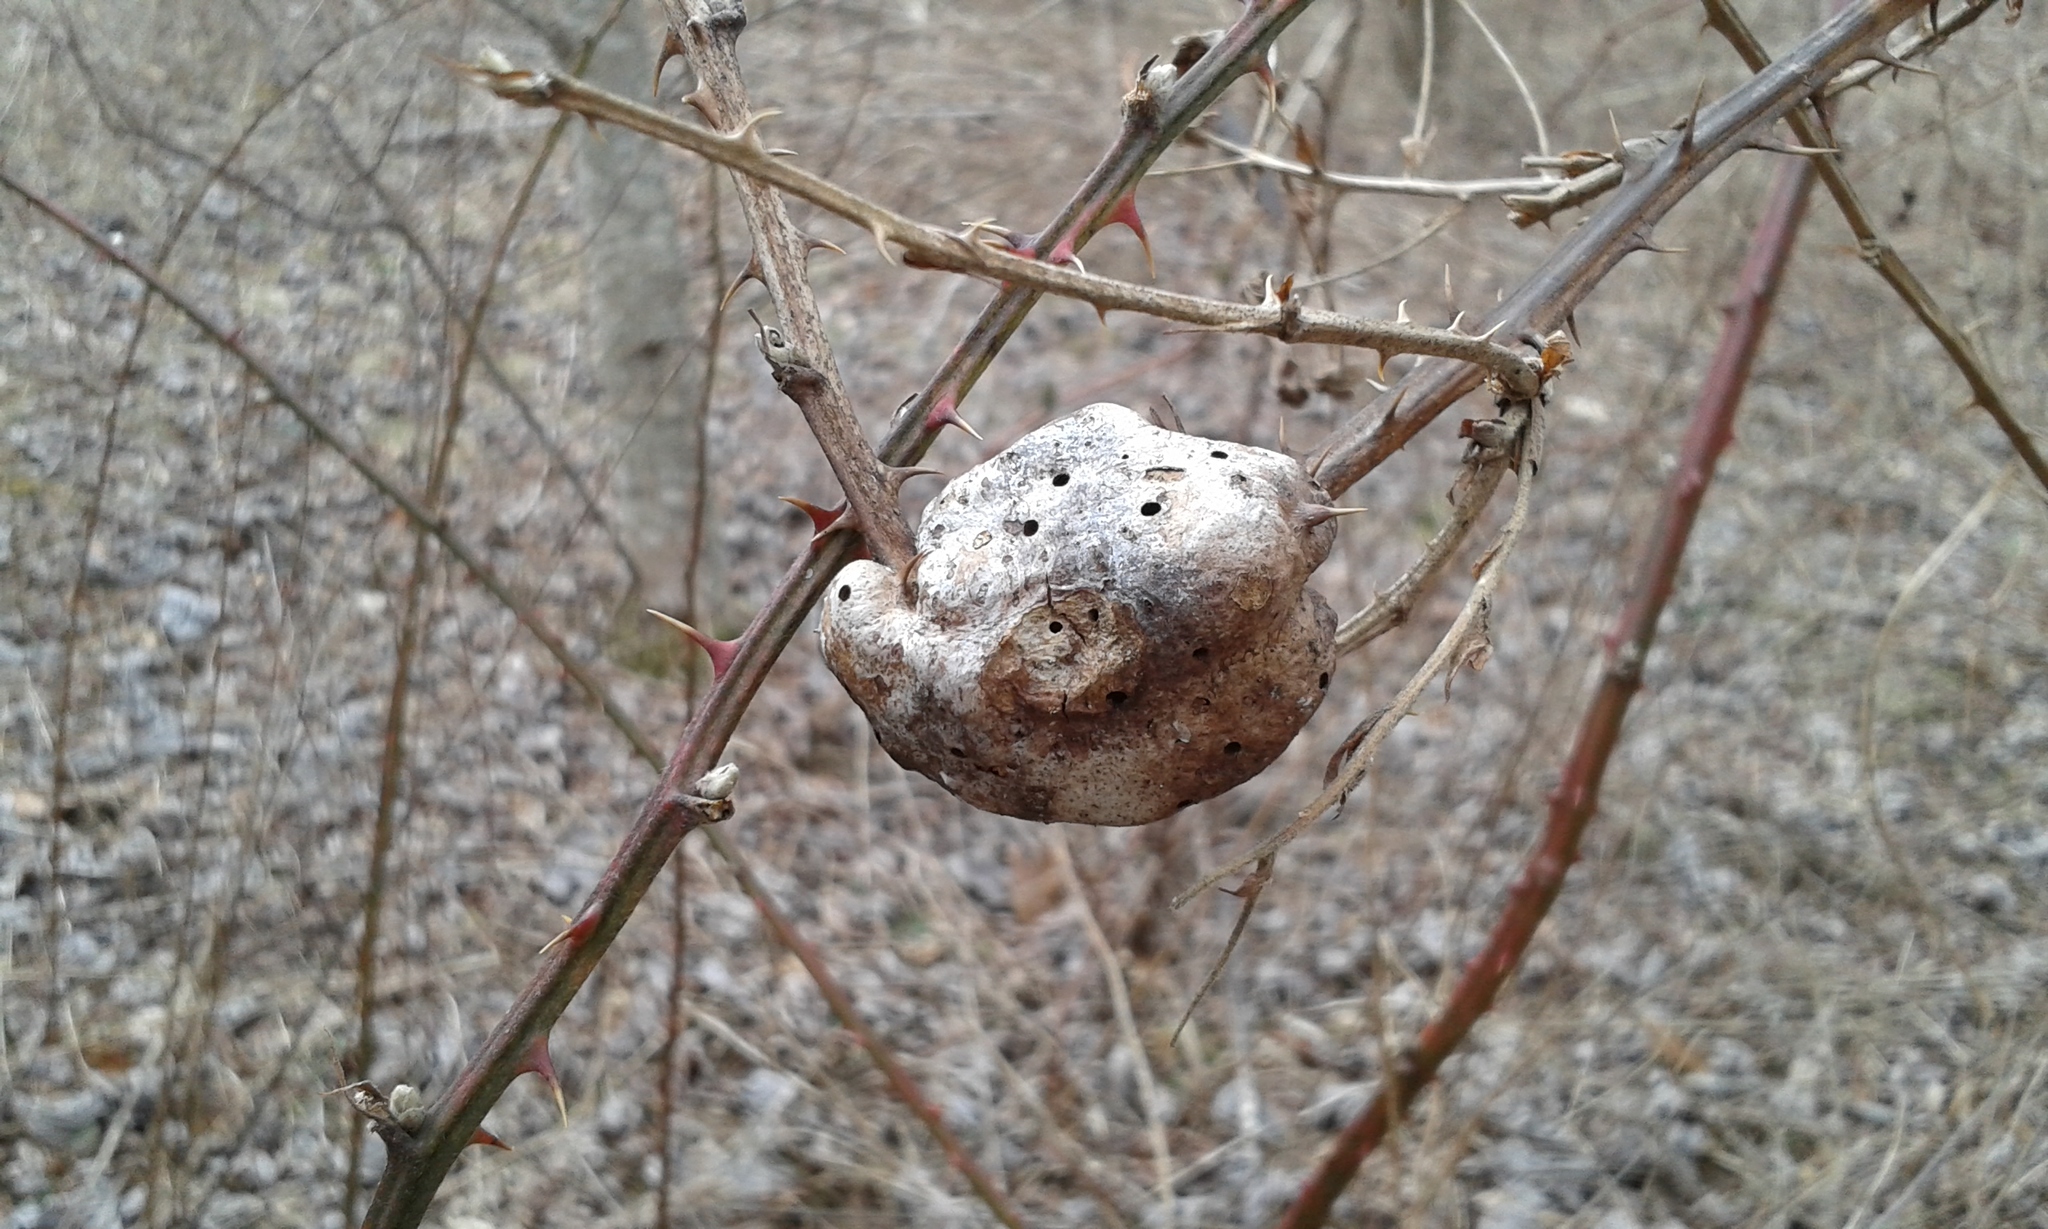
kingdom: Animalia
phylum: Arthropoda
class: Insecta
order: Hymenoptera
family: Cynipidae
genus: Diastrophus
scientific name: Diastrophus
